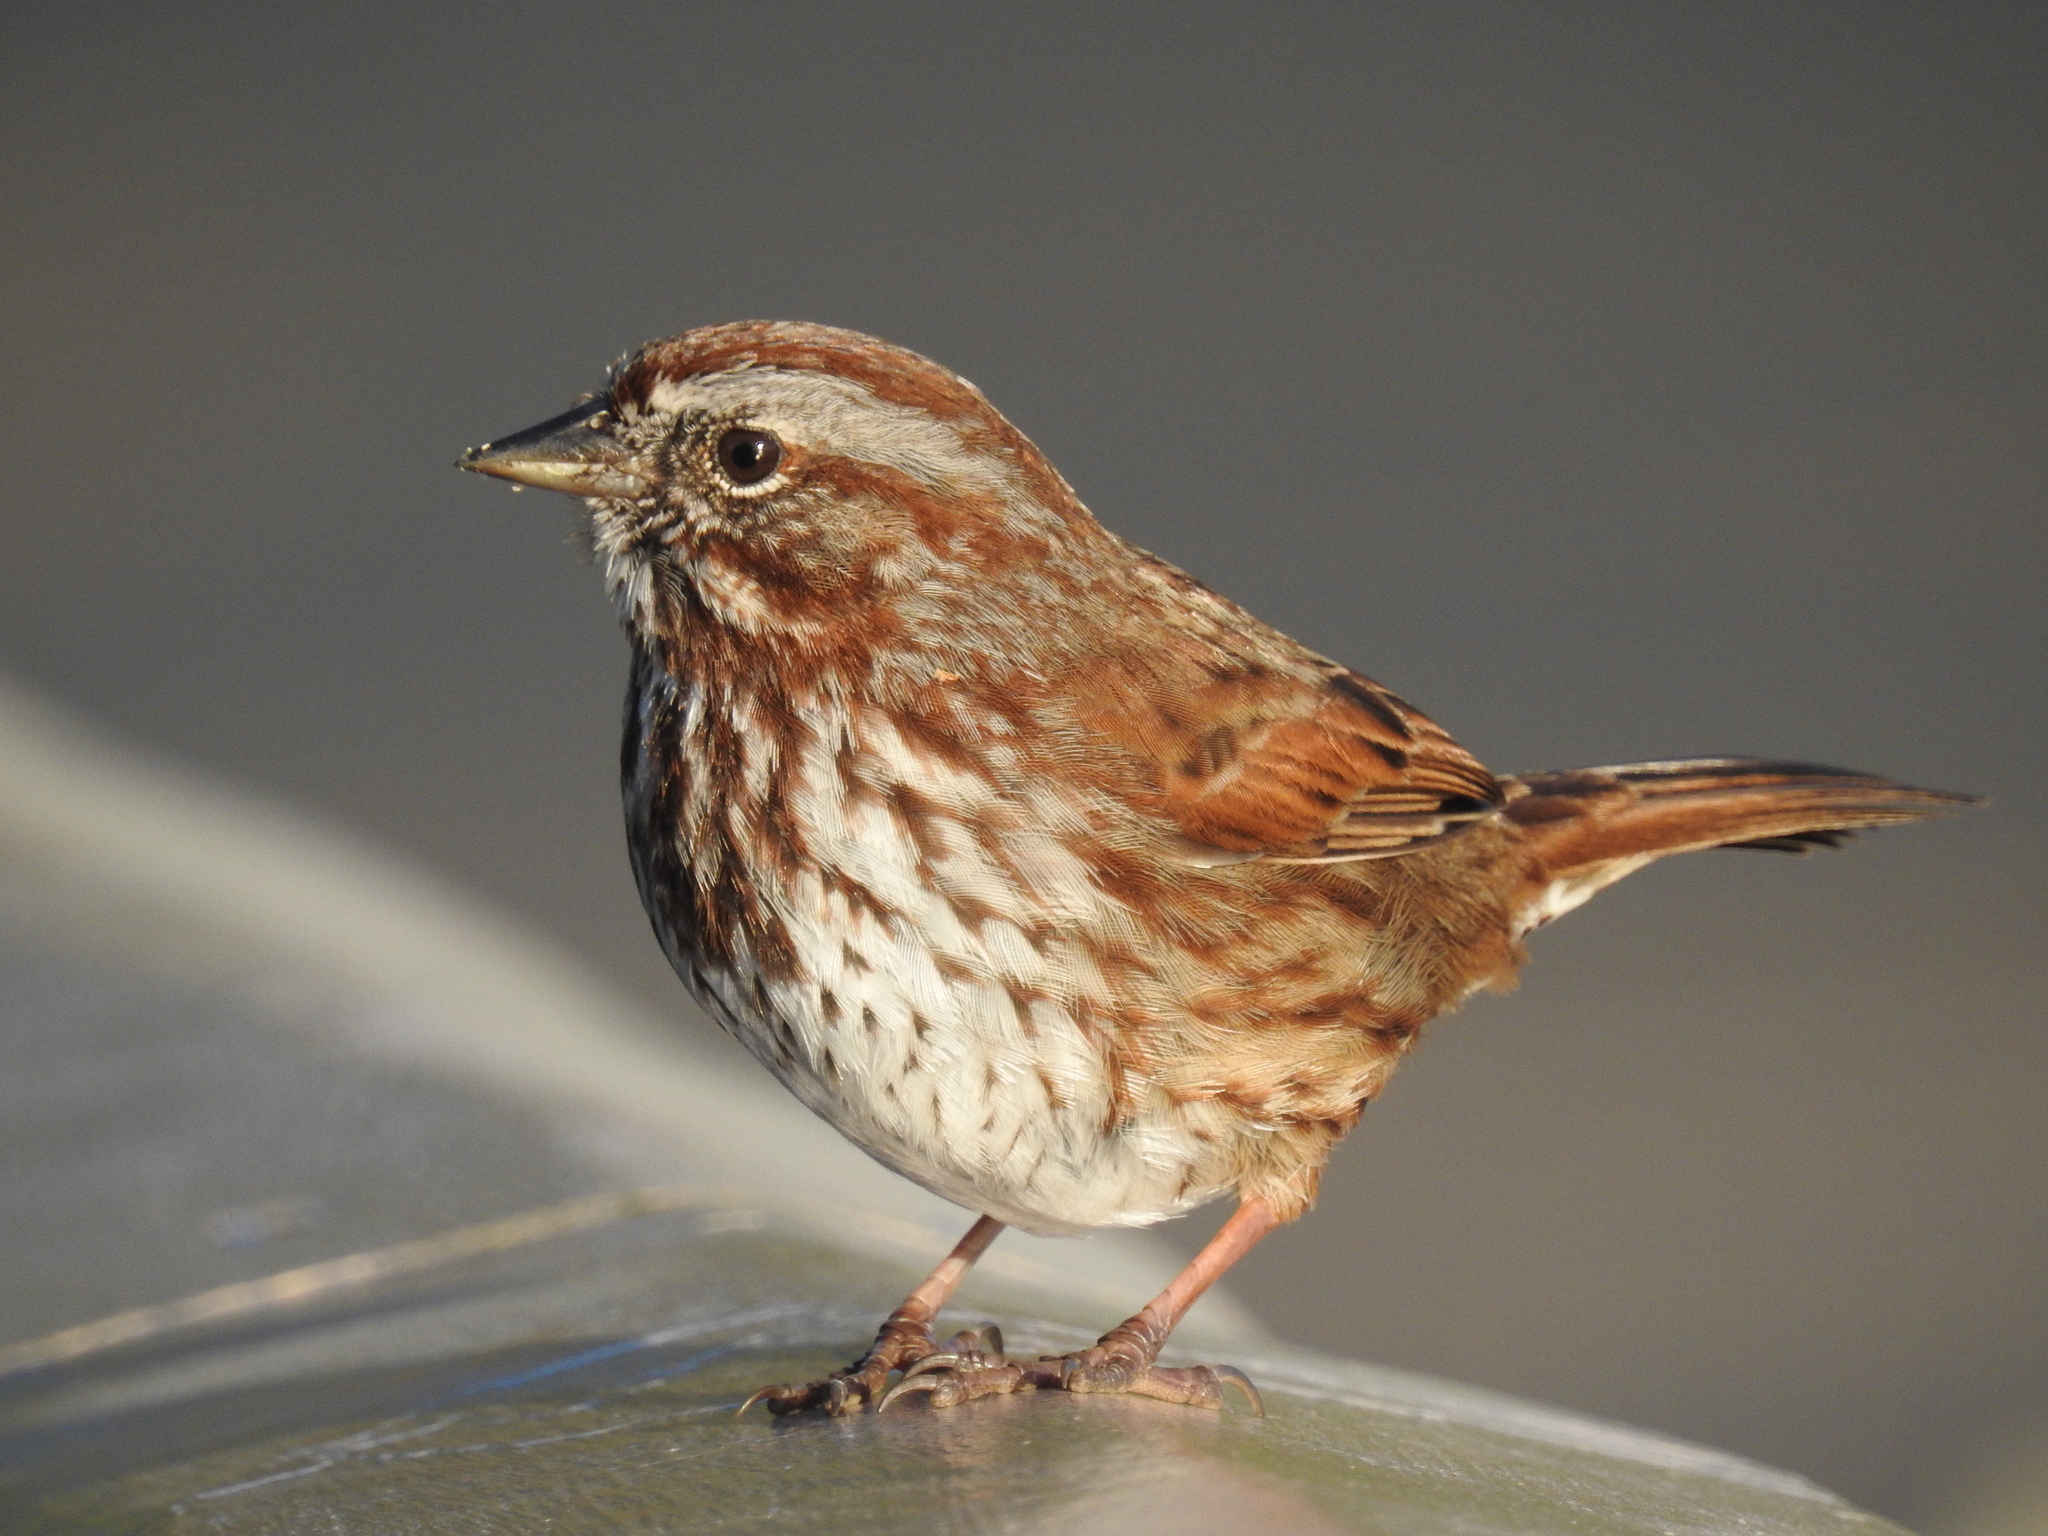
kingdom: Animalia
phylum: Chordata
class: Aves
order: Passeriformes
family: Passerellidae
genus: Melospiza
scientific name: Melospiza melodia
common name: Song sparrow
